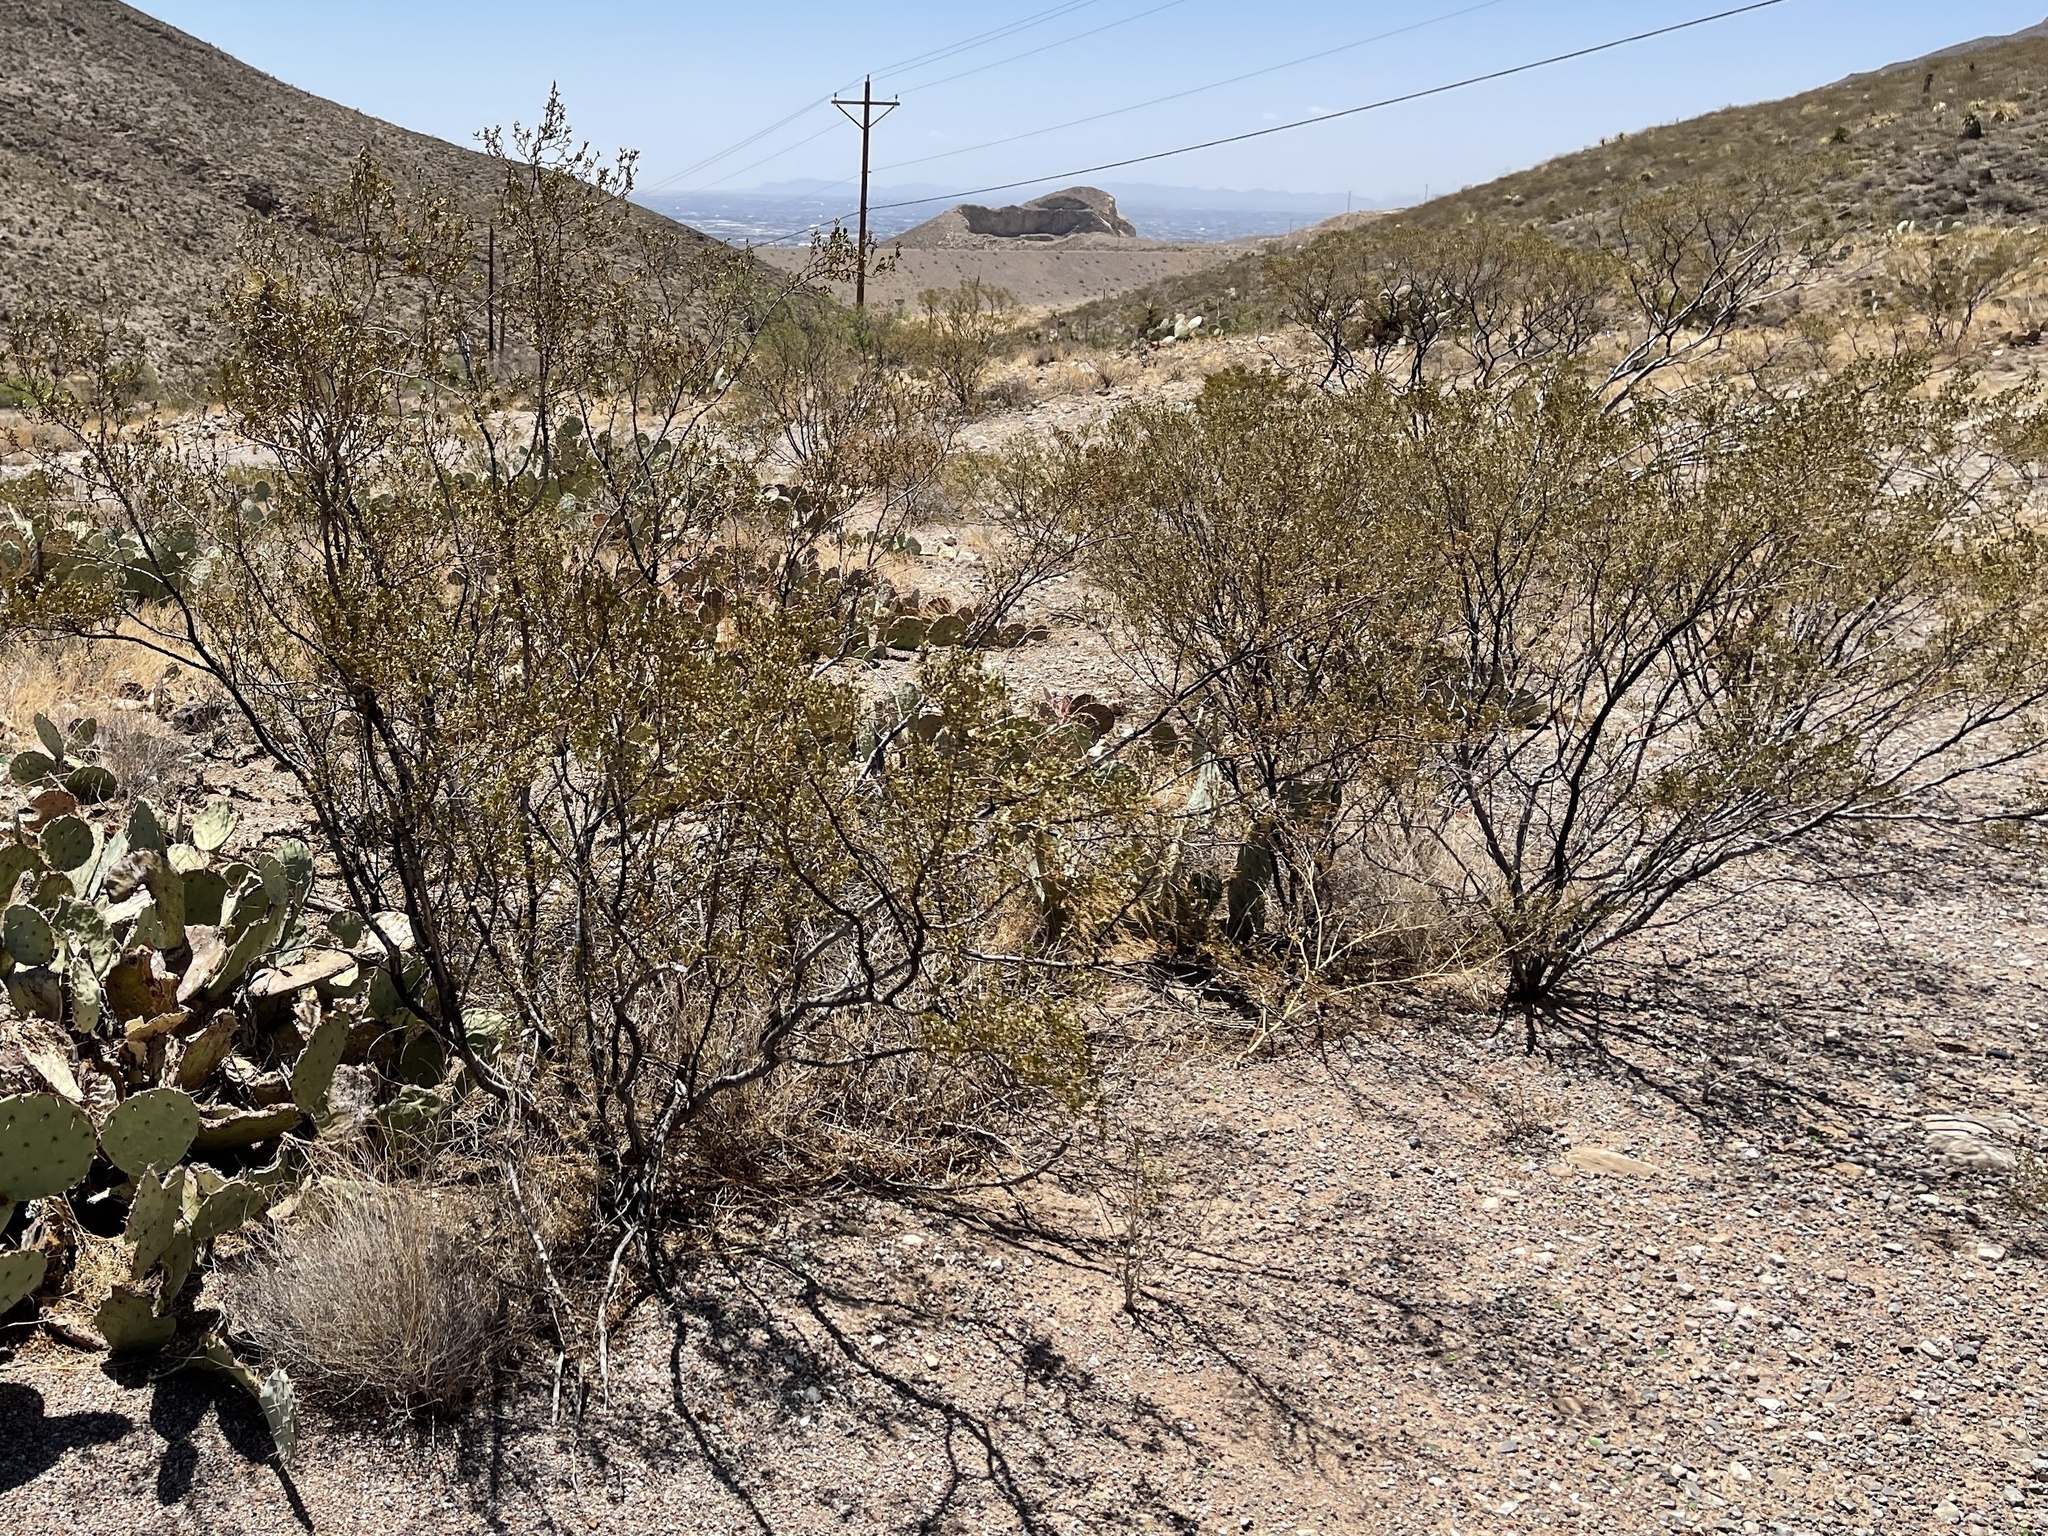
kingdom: Plantae
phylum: Tracheophyta
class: Magnoliopsida
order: Zygophyllales
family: Zygophyllaceae
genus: Larrea
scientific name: Larrea tridentata
